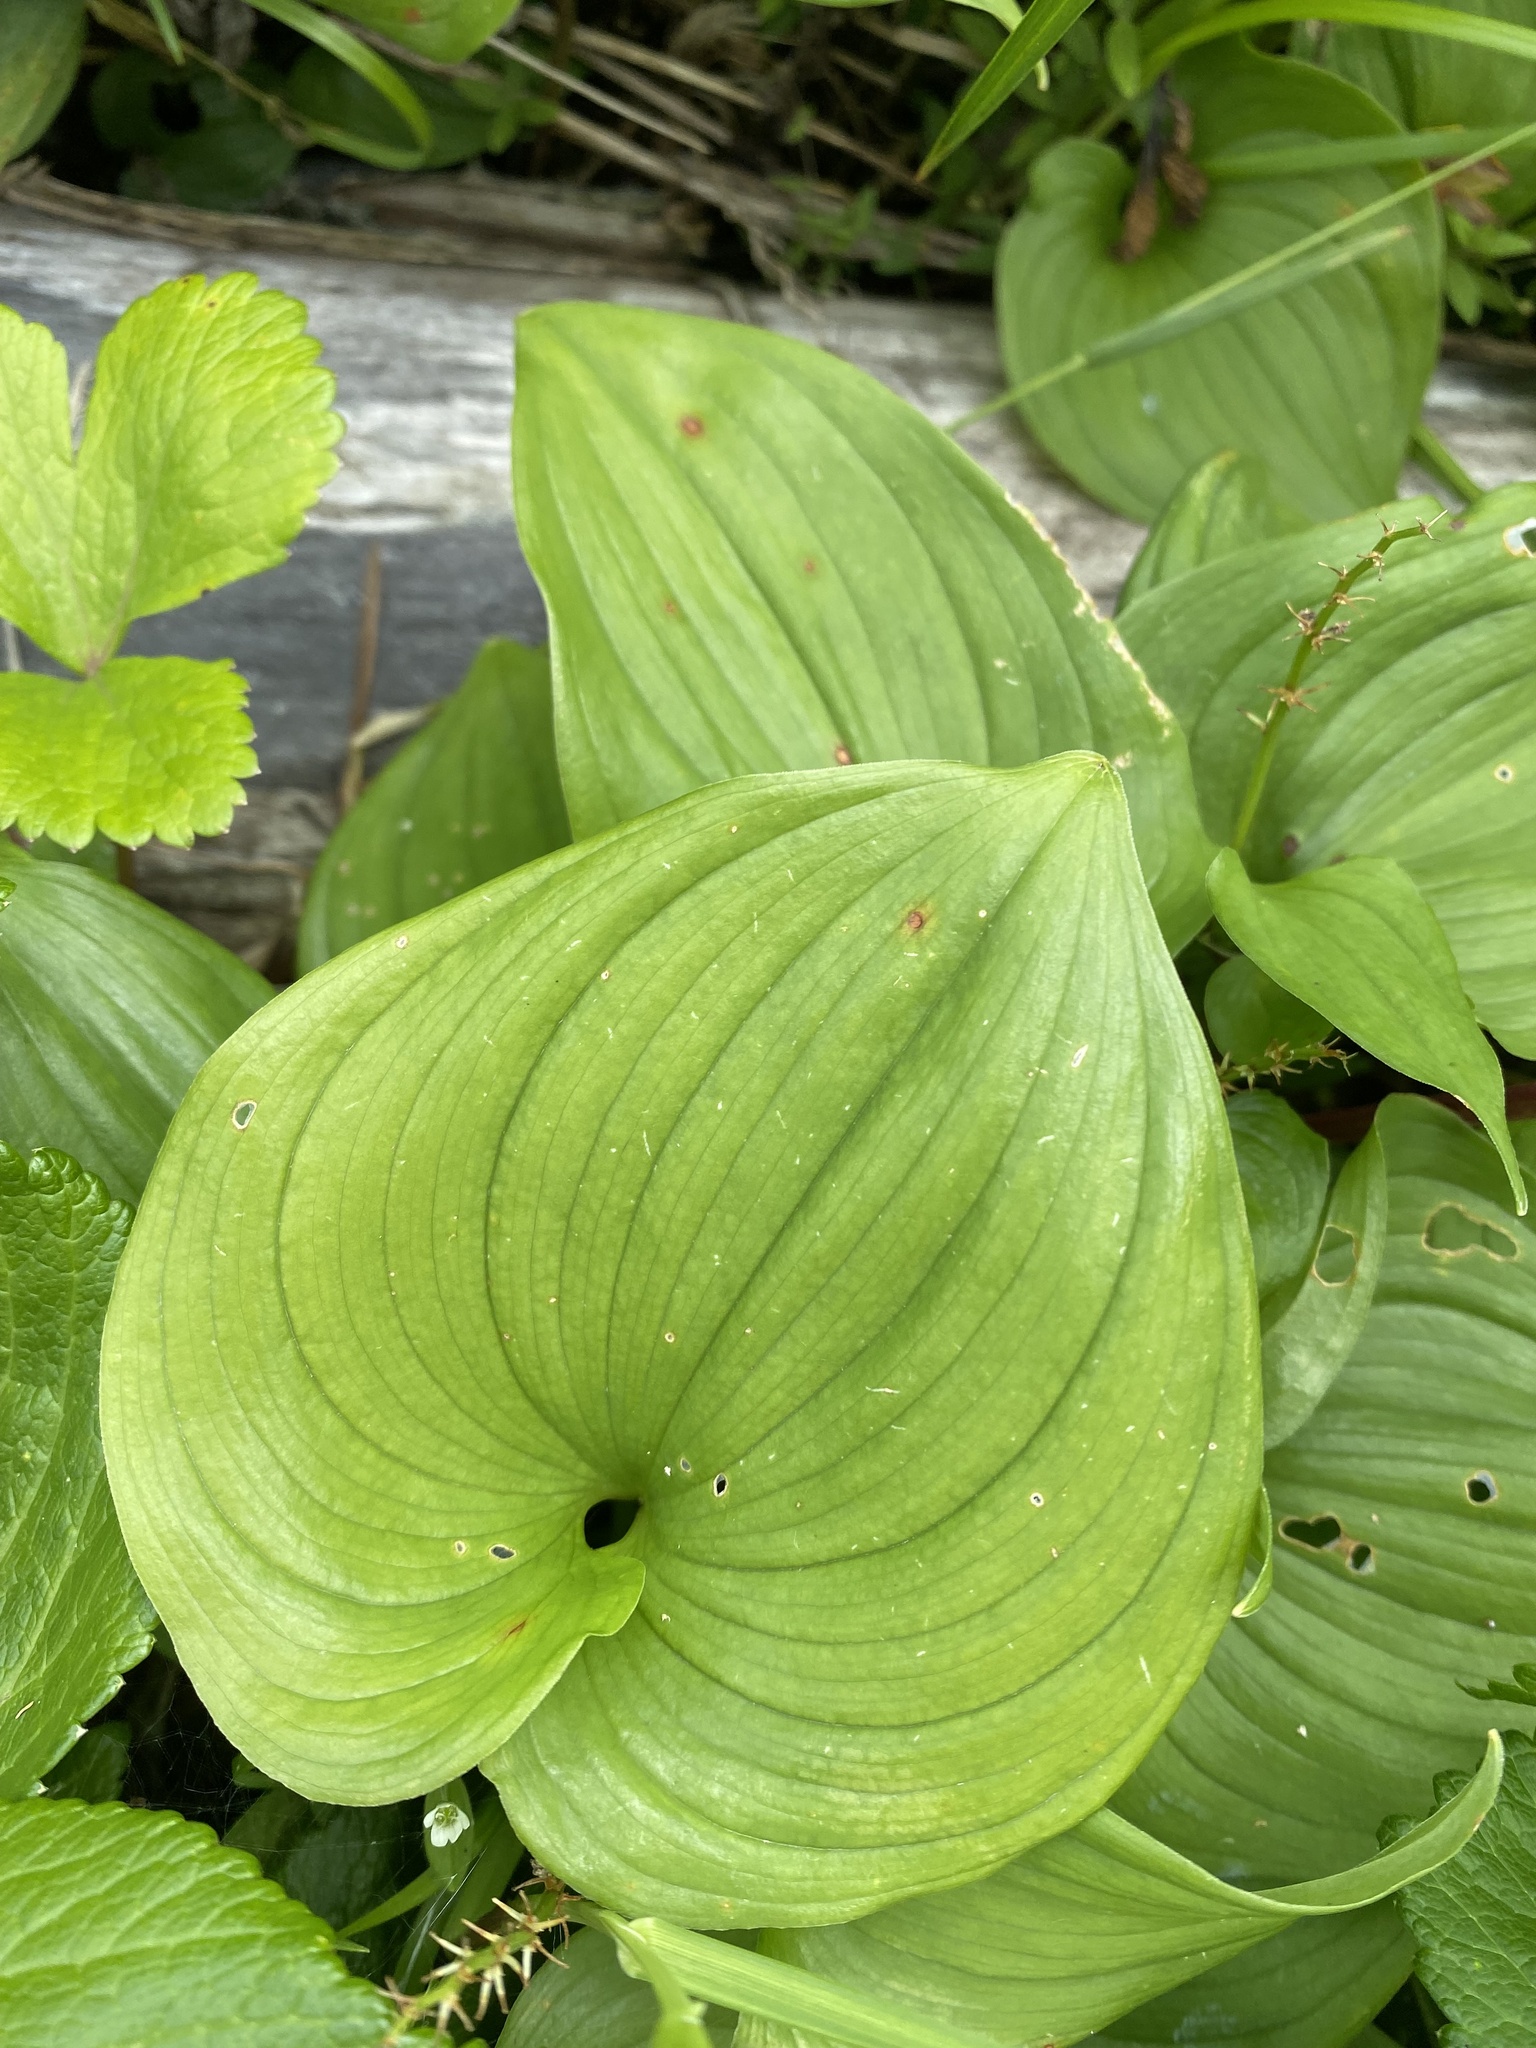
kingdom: Plantae
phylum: Tracheophyta
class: Liliopsida
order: Asparagales
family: Asparagaceae
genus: Maianthemum
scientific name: Maianthemum dilatatum
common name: False lily-of-the-valley
